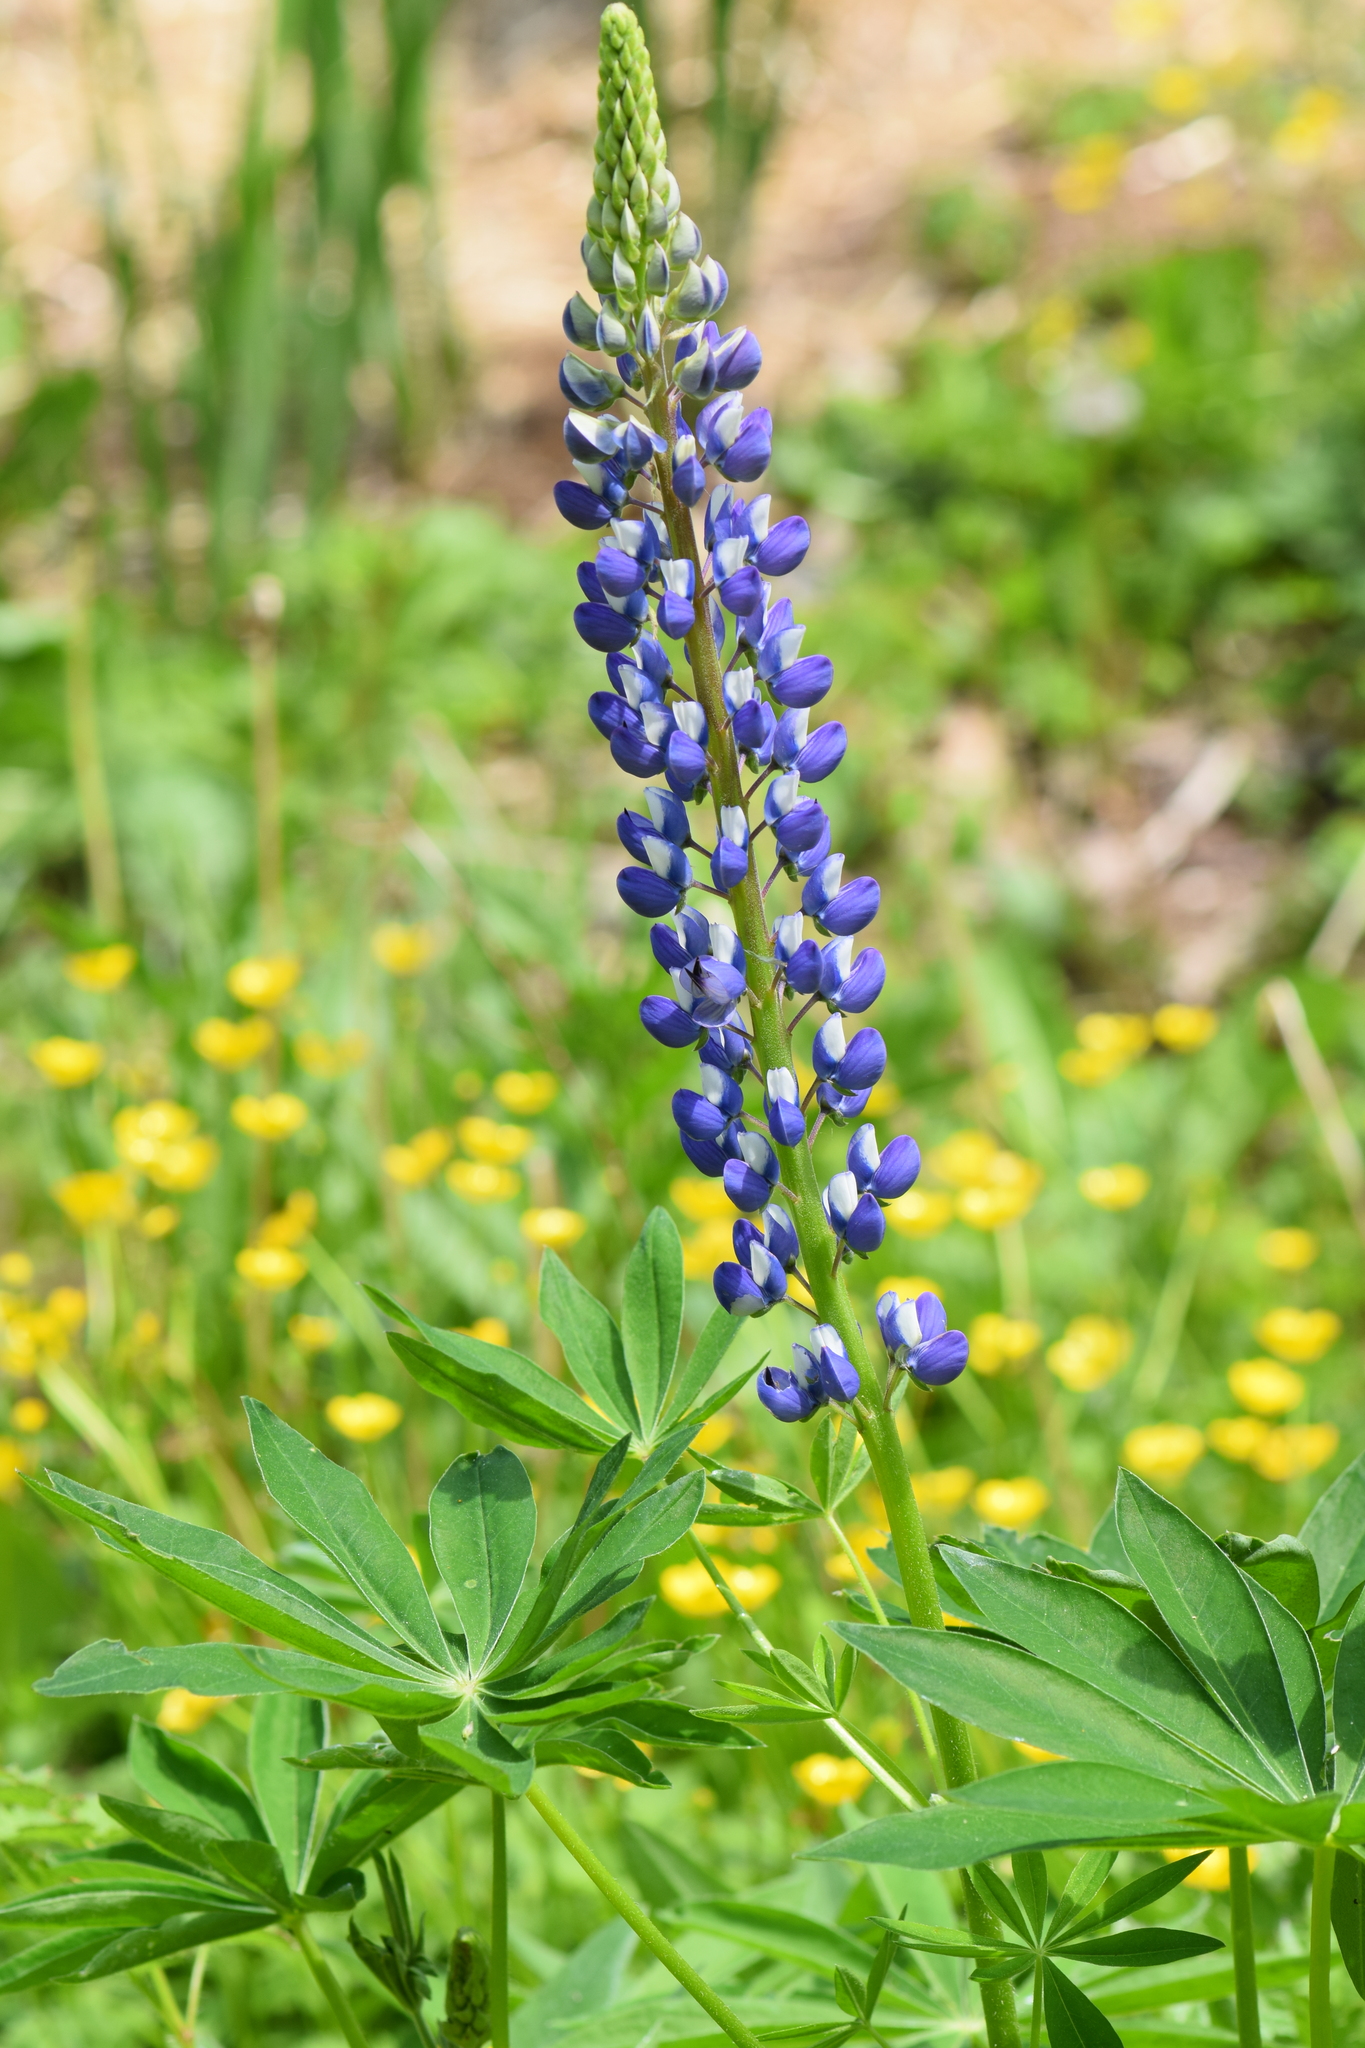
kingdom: Plantae
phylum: Tracheophyta
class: Magnoliopsida
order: Fabales
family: Fabaceae
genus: Lupinus
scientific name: Lupinus polyphyllus
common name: Garden lupin
